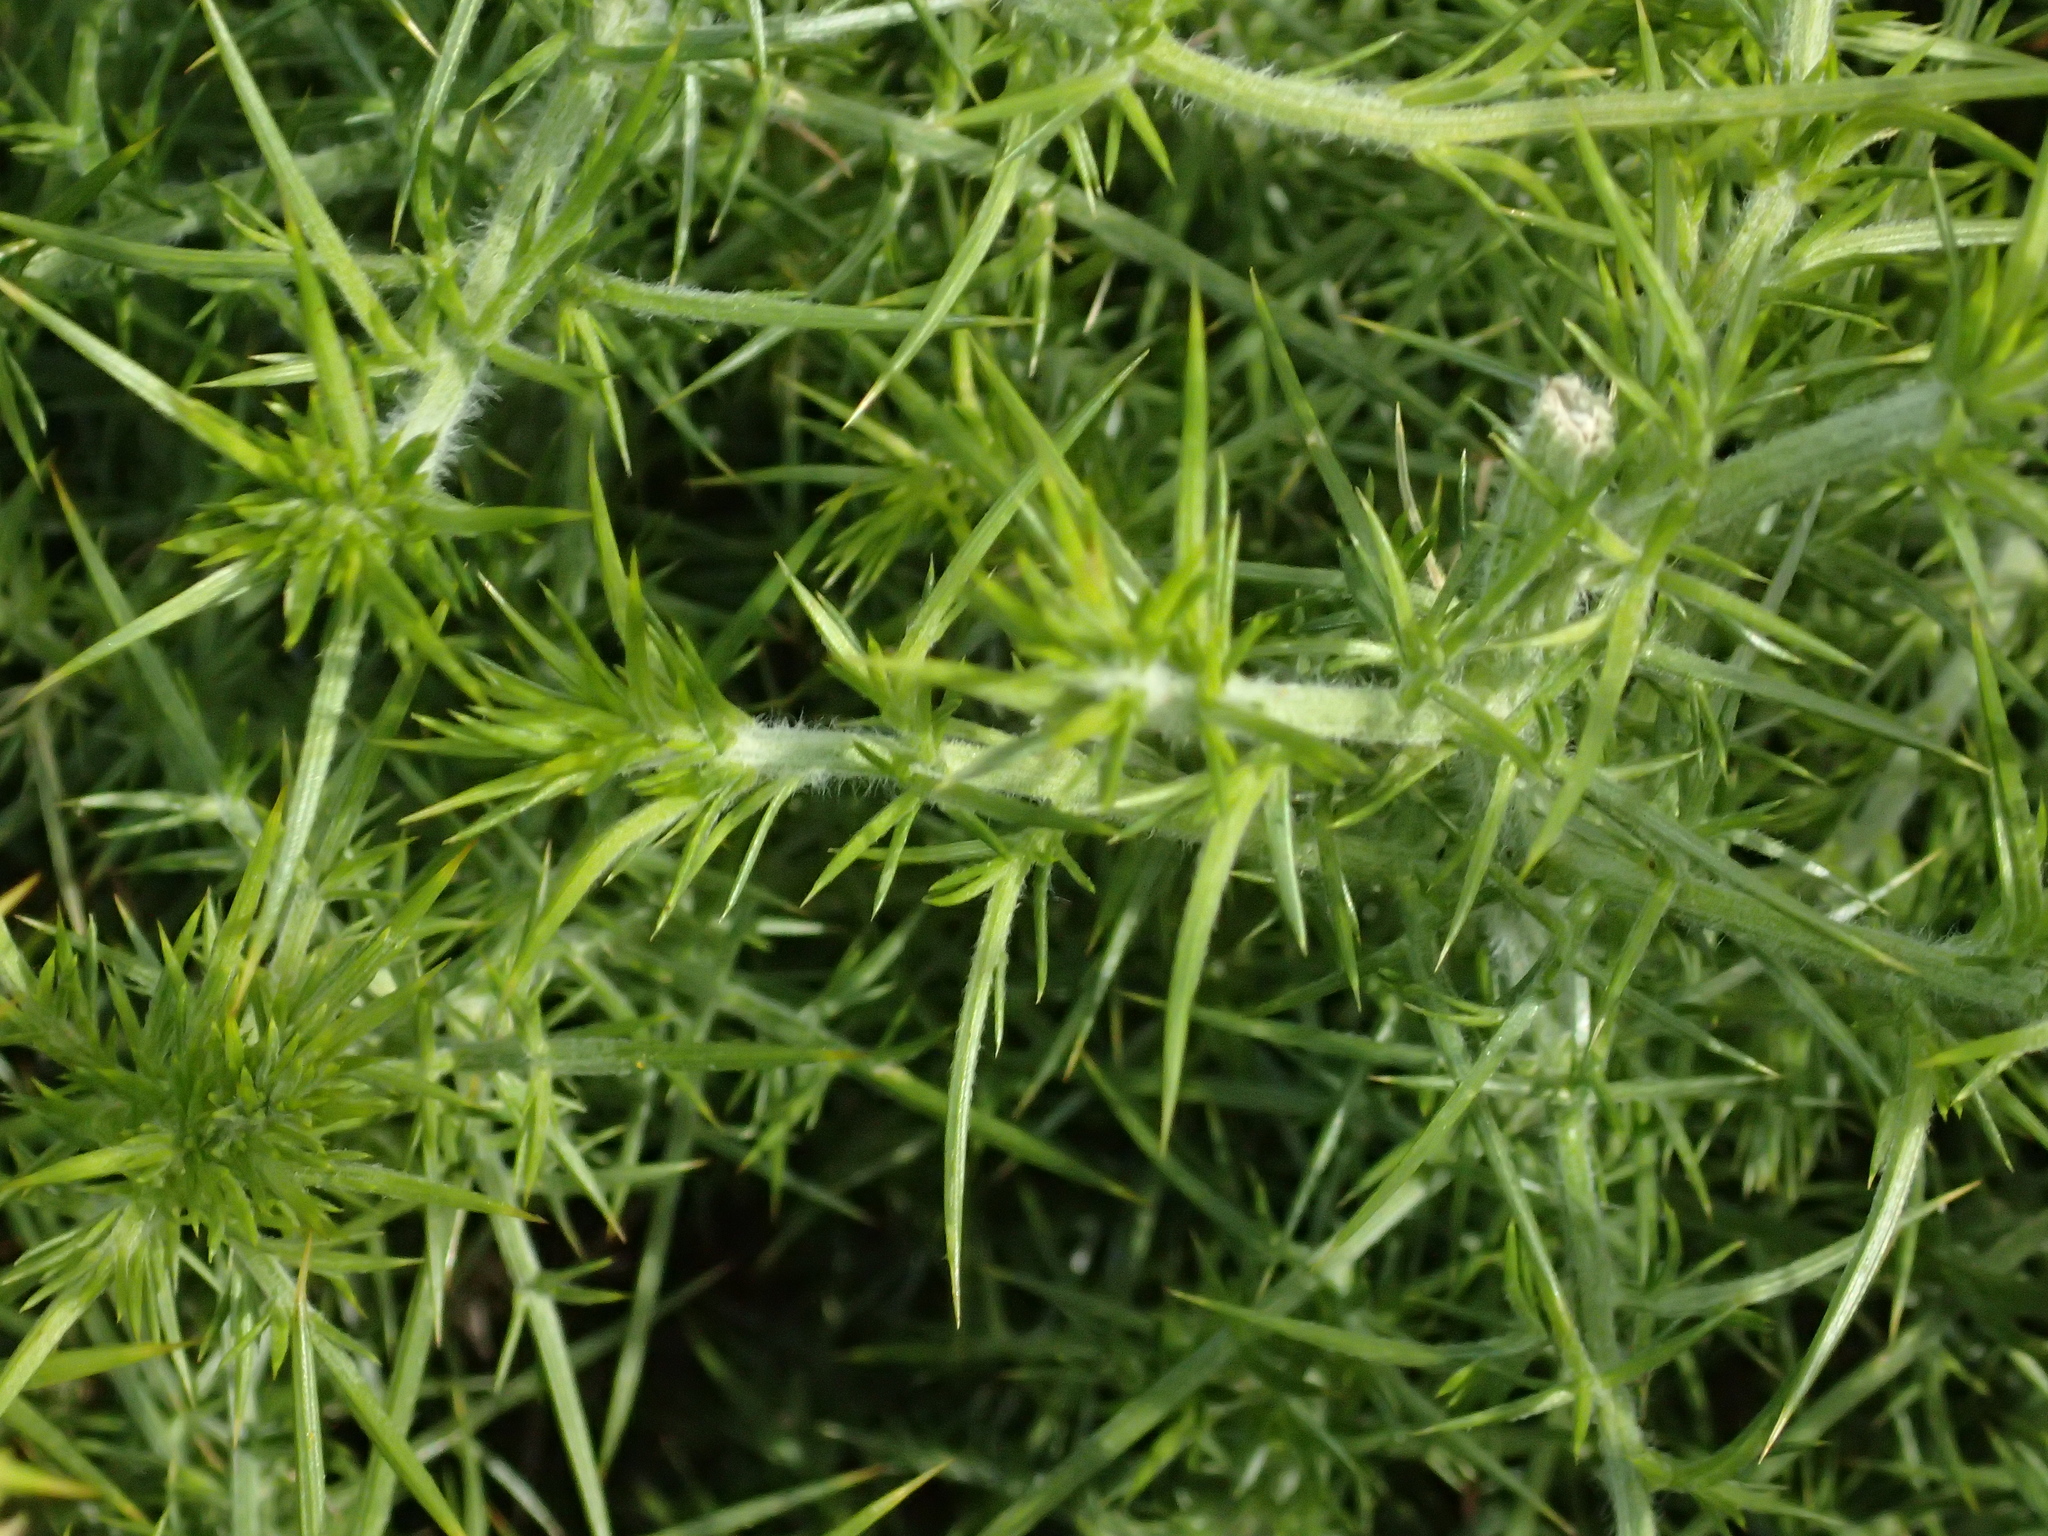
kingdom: Plantae
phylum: Tracheophyta
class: Magnoliopsida
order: Fabales
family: Fabaceae
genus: Ulex
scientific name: Ulex europaeus
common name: Common gorse
